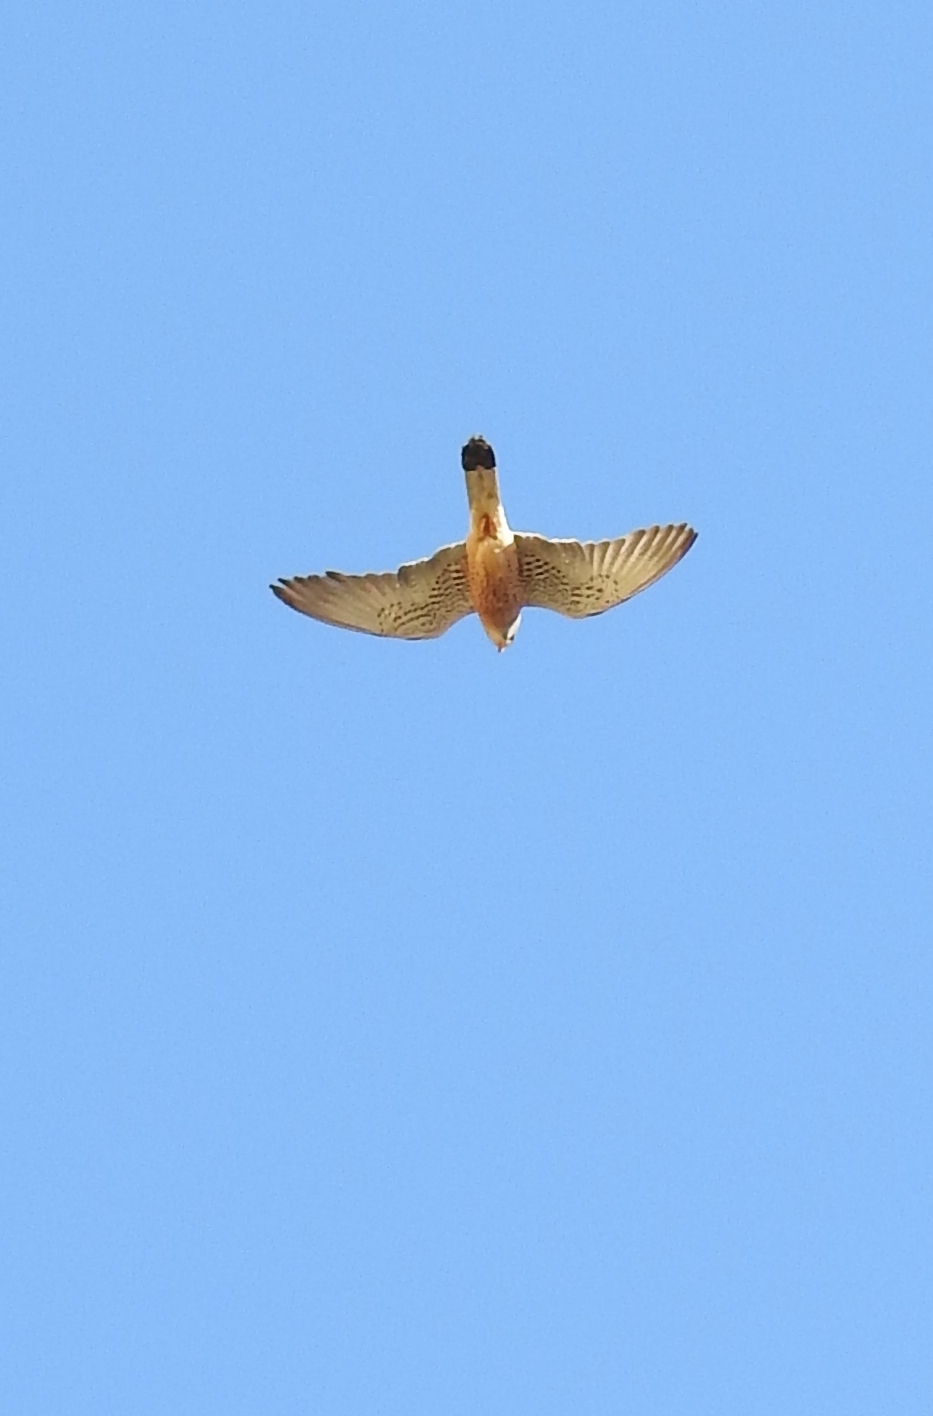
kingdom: Animalia
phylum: Chordata
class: Aves
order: Falconiformes
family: Falconidae
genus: Falco
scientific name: Falco naumanni
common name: Lesser kestrel
